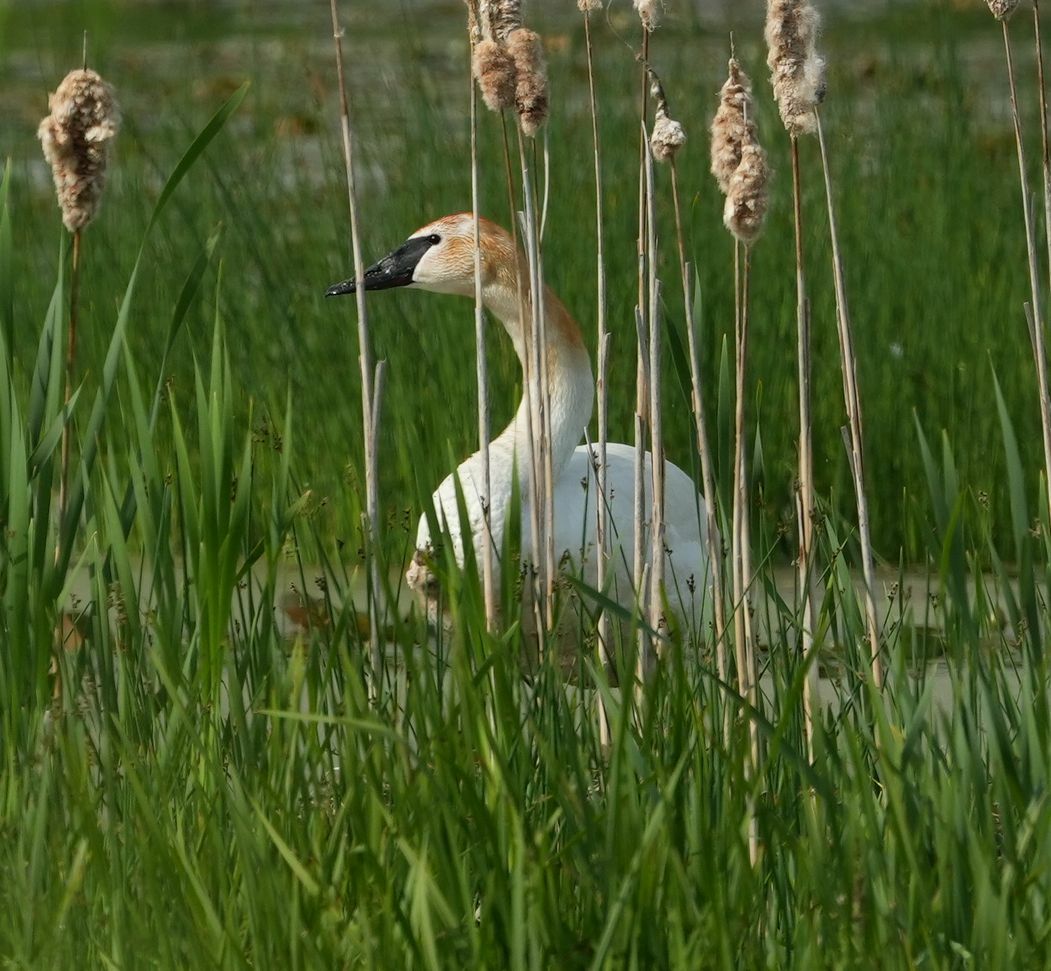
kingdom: Animalia
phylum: Chordata
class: Aves
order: Anseriformes
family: Anatidae
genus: Cygnus
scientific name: Cygnus buccinator
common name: Trumpeter swan
